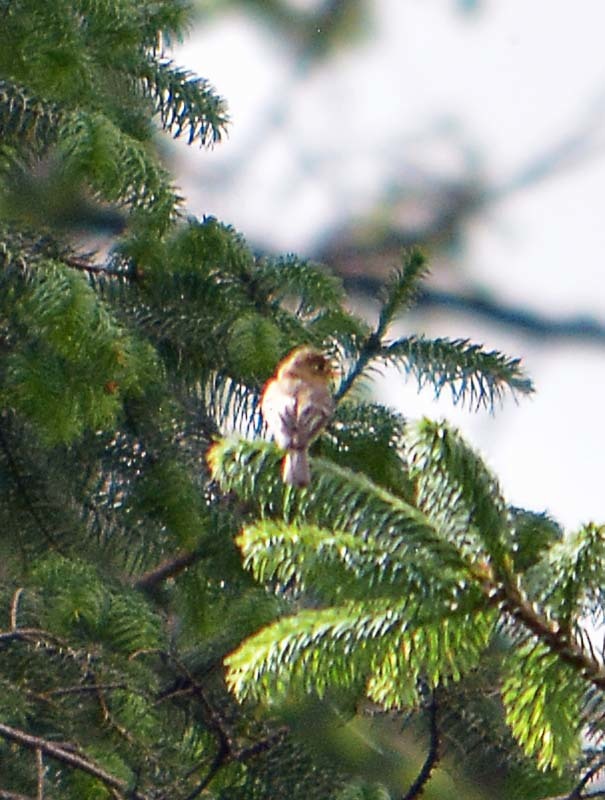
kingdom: Animalia
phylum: Chordata
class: Aves
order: Passeriformes
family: Tyrannidae
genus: Empidonax
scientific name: Empidonax fulvifrons
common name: Buff-breasted flycatcher
